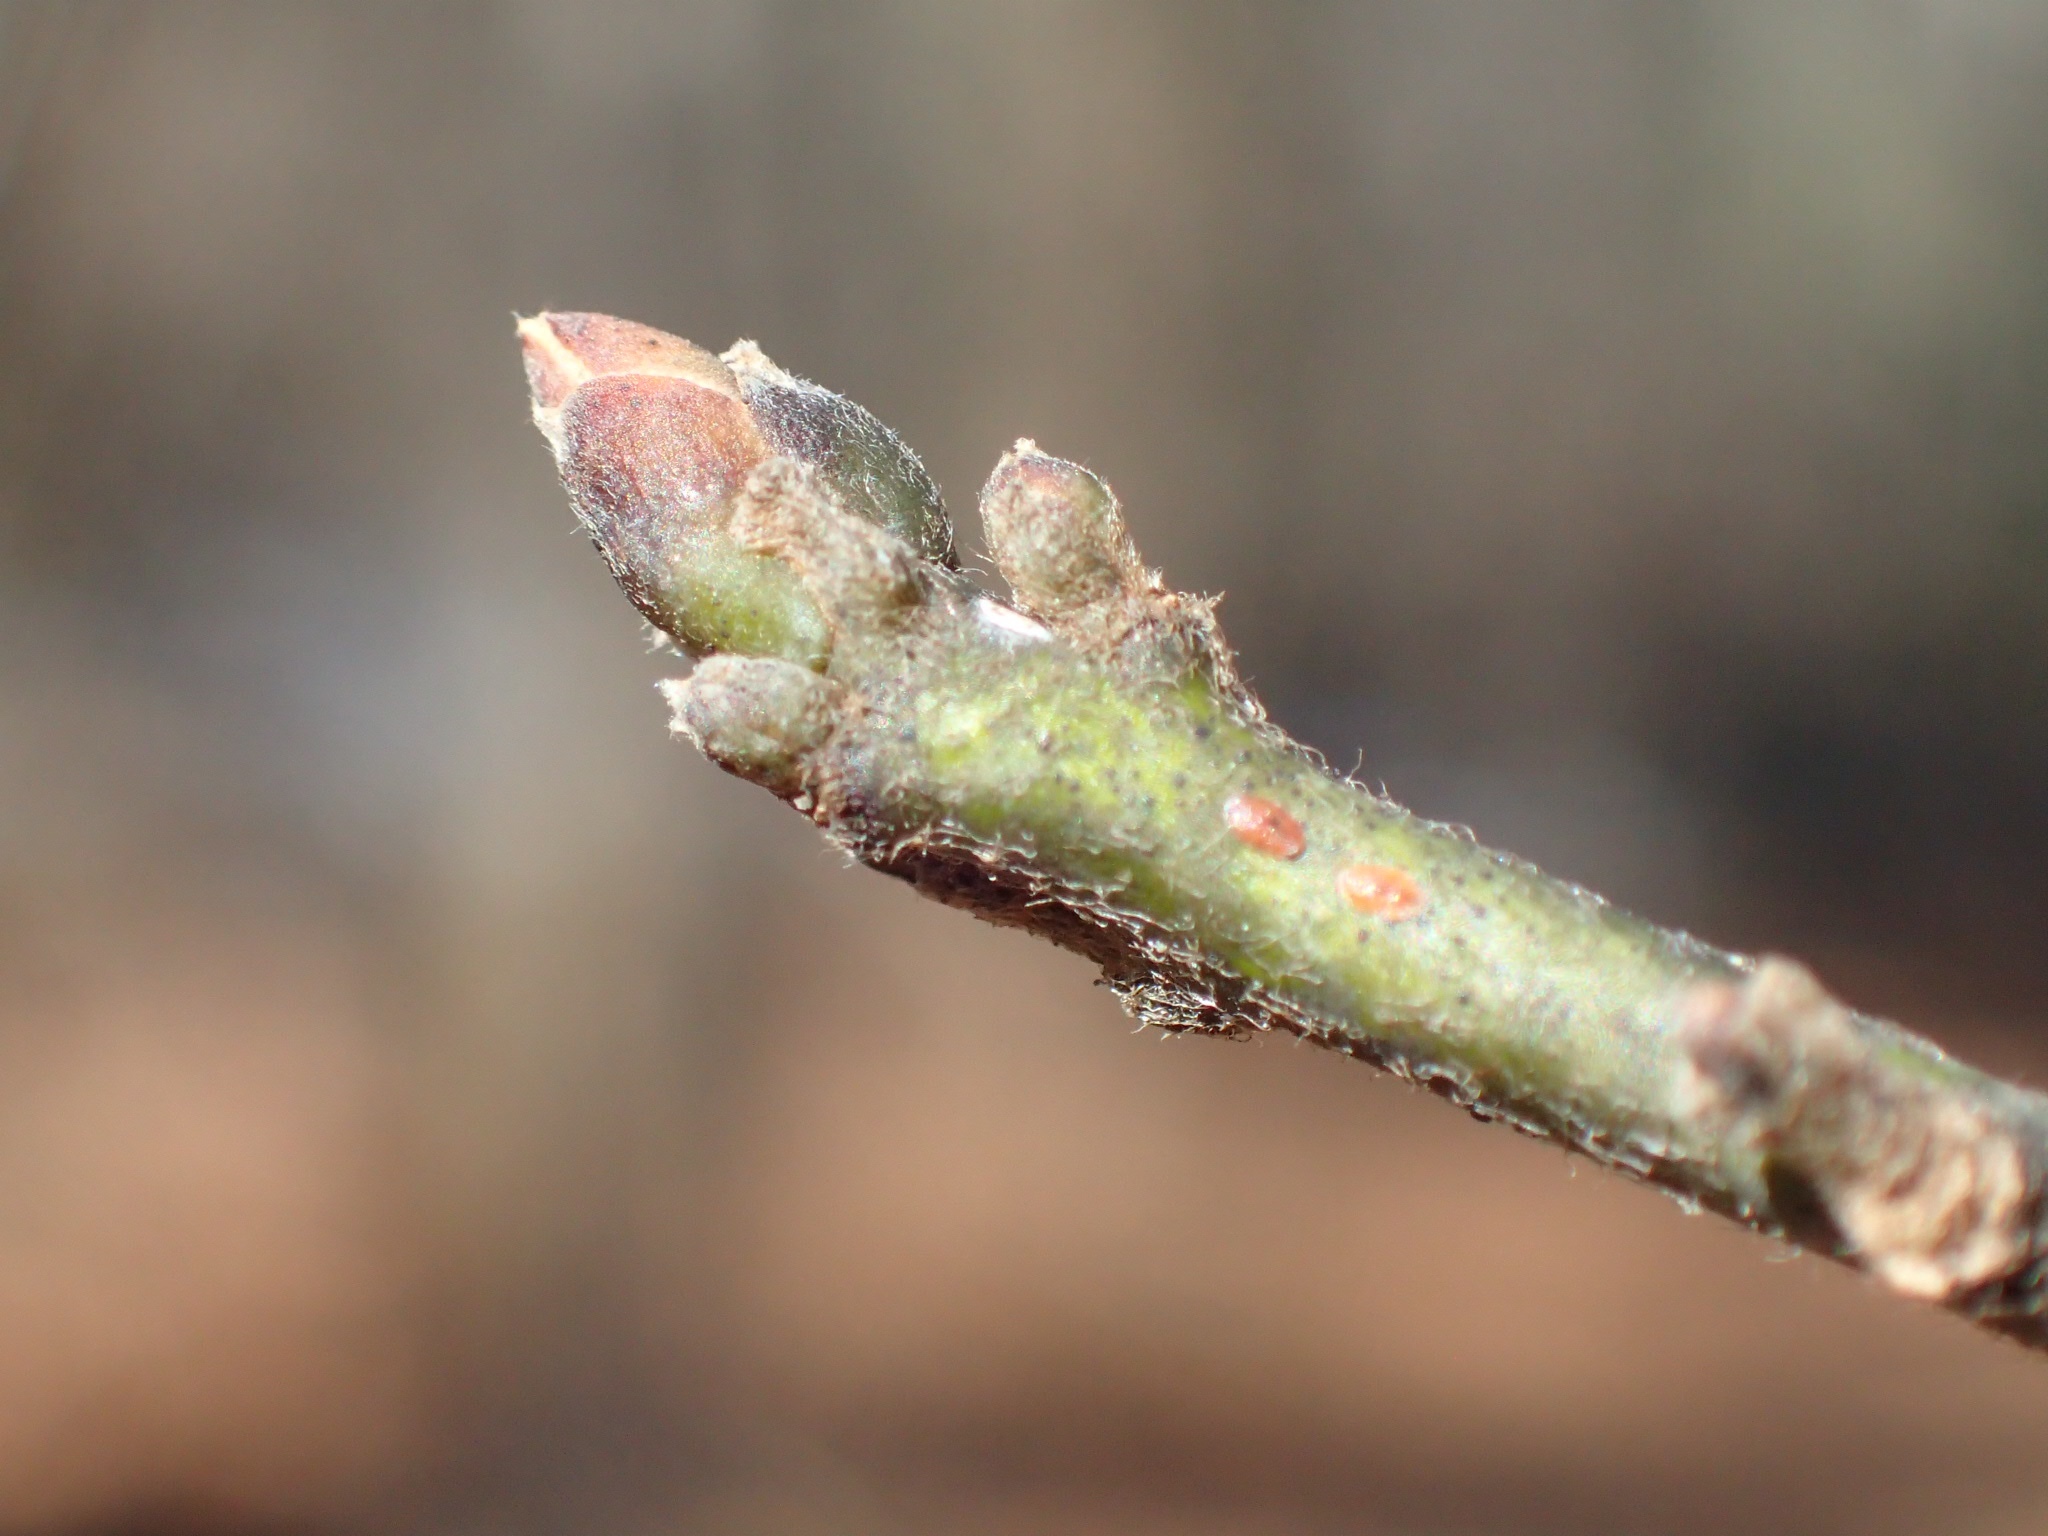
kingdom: Plantae
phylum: Tracheophyta
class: Magnoliopsida
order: Laurales
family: Lauraceae
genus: Sassafras
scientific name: Sassafras albidum
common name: Sassafras
